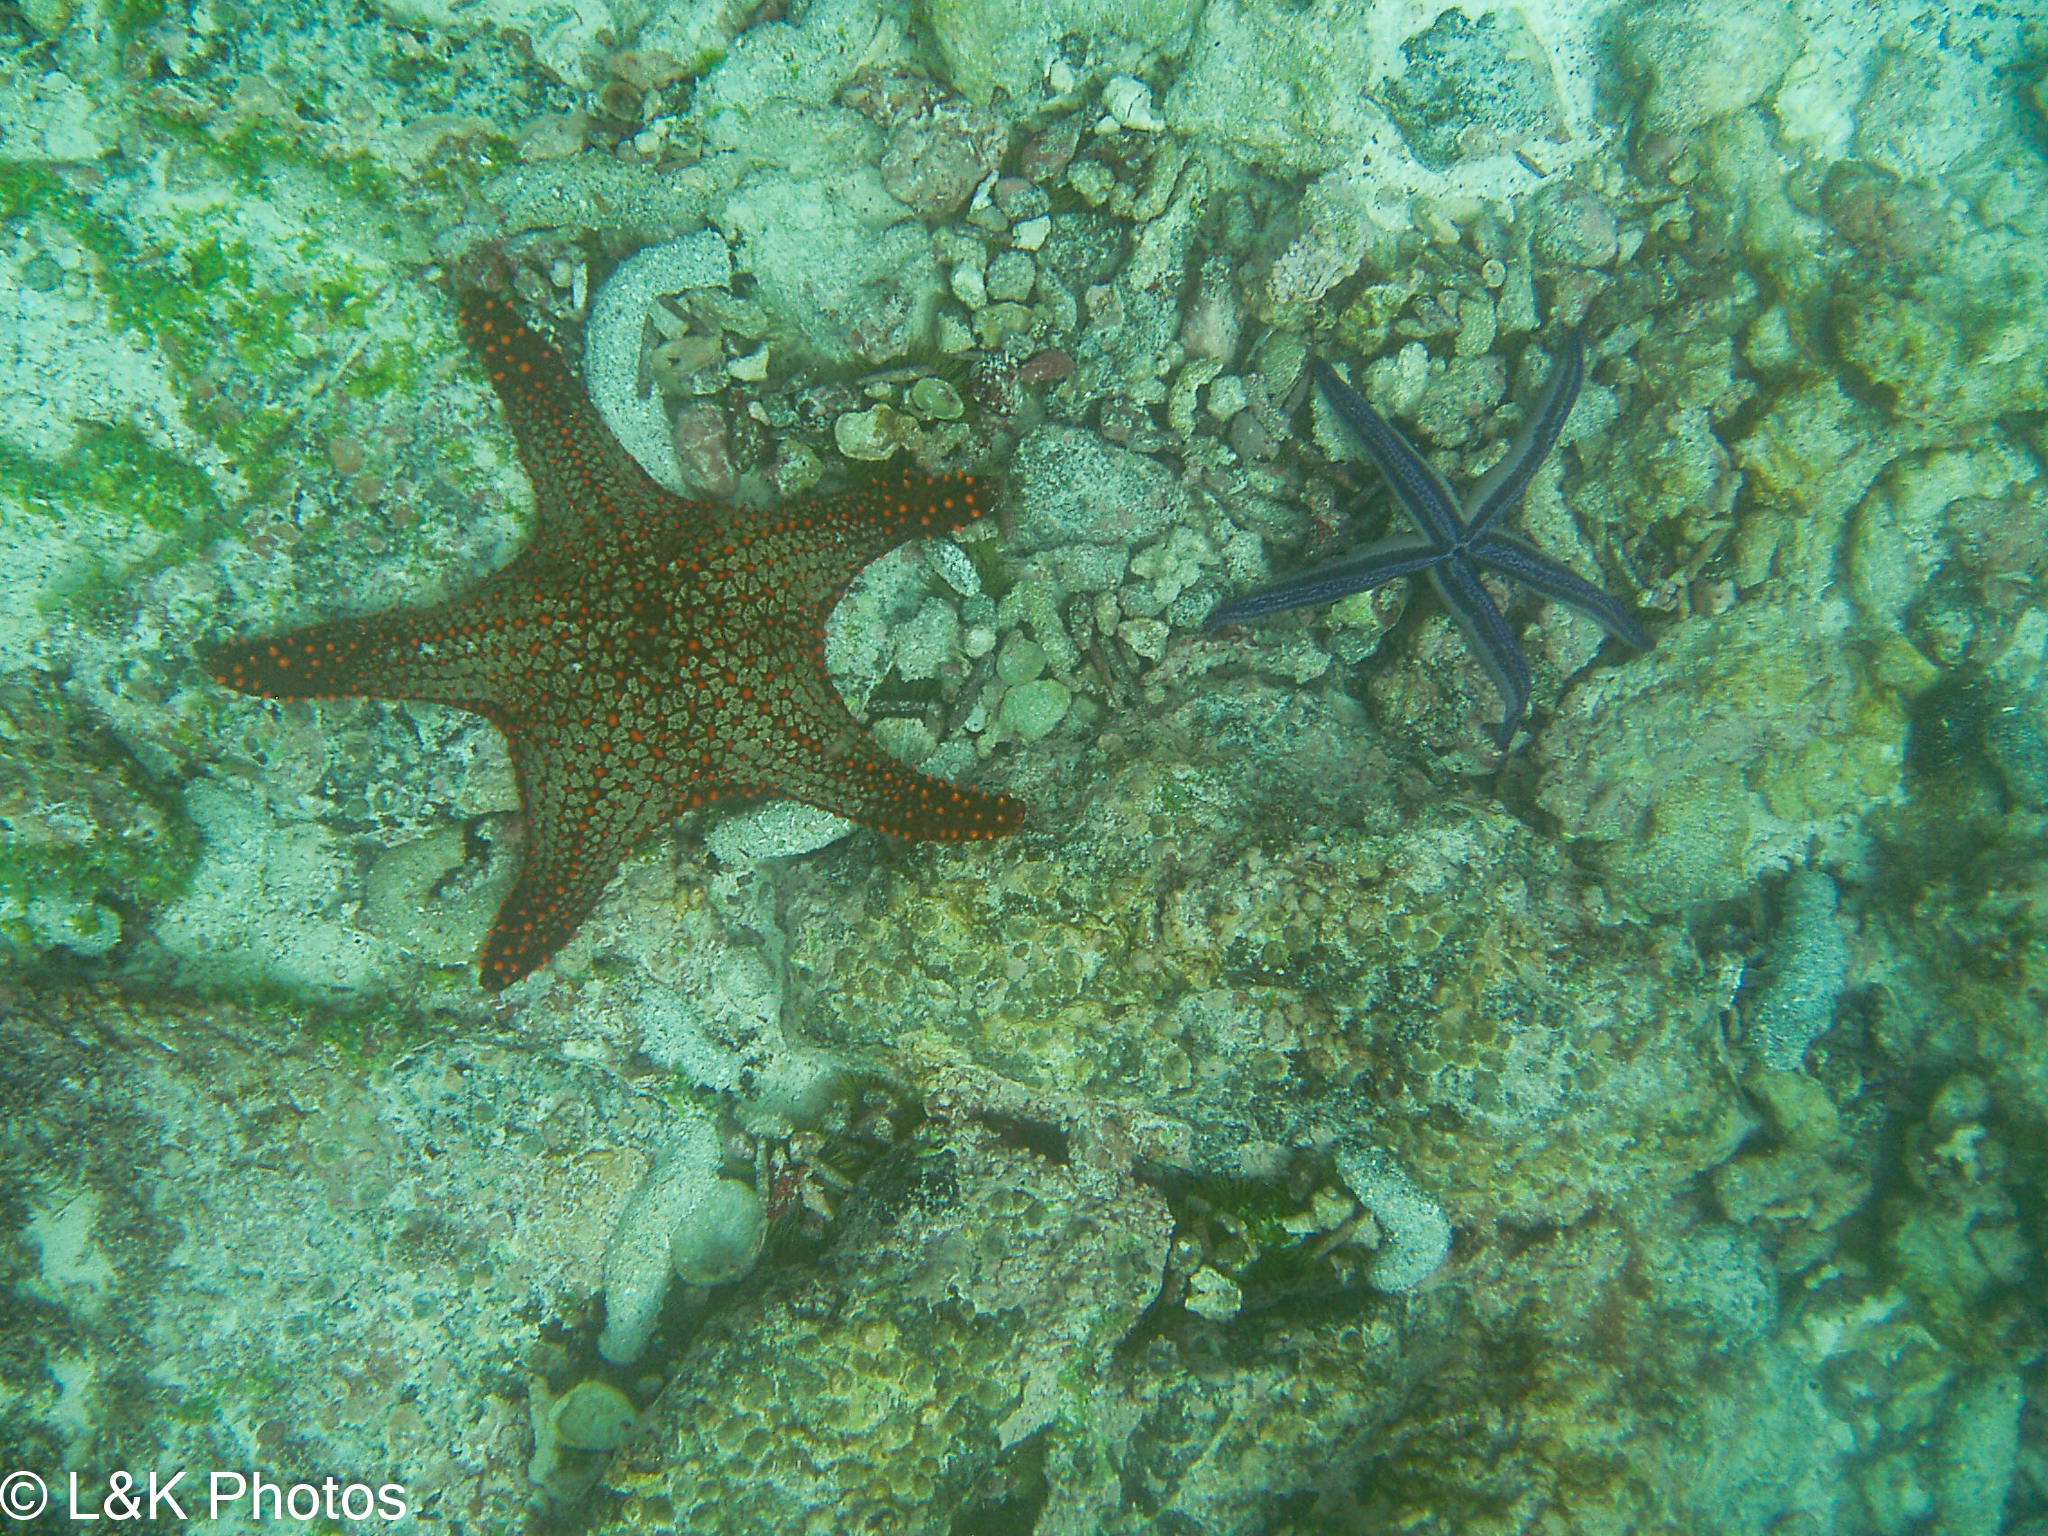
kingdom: Animalia
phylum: Echinodermata
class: Asteroidea
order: Valvatida
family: Oreasteridae
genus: Pentaceraster
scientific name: Pentaceraster cumingi
